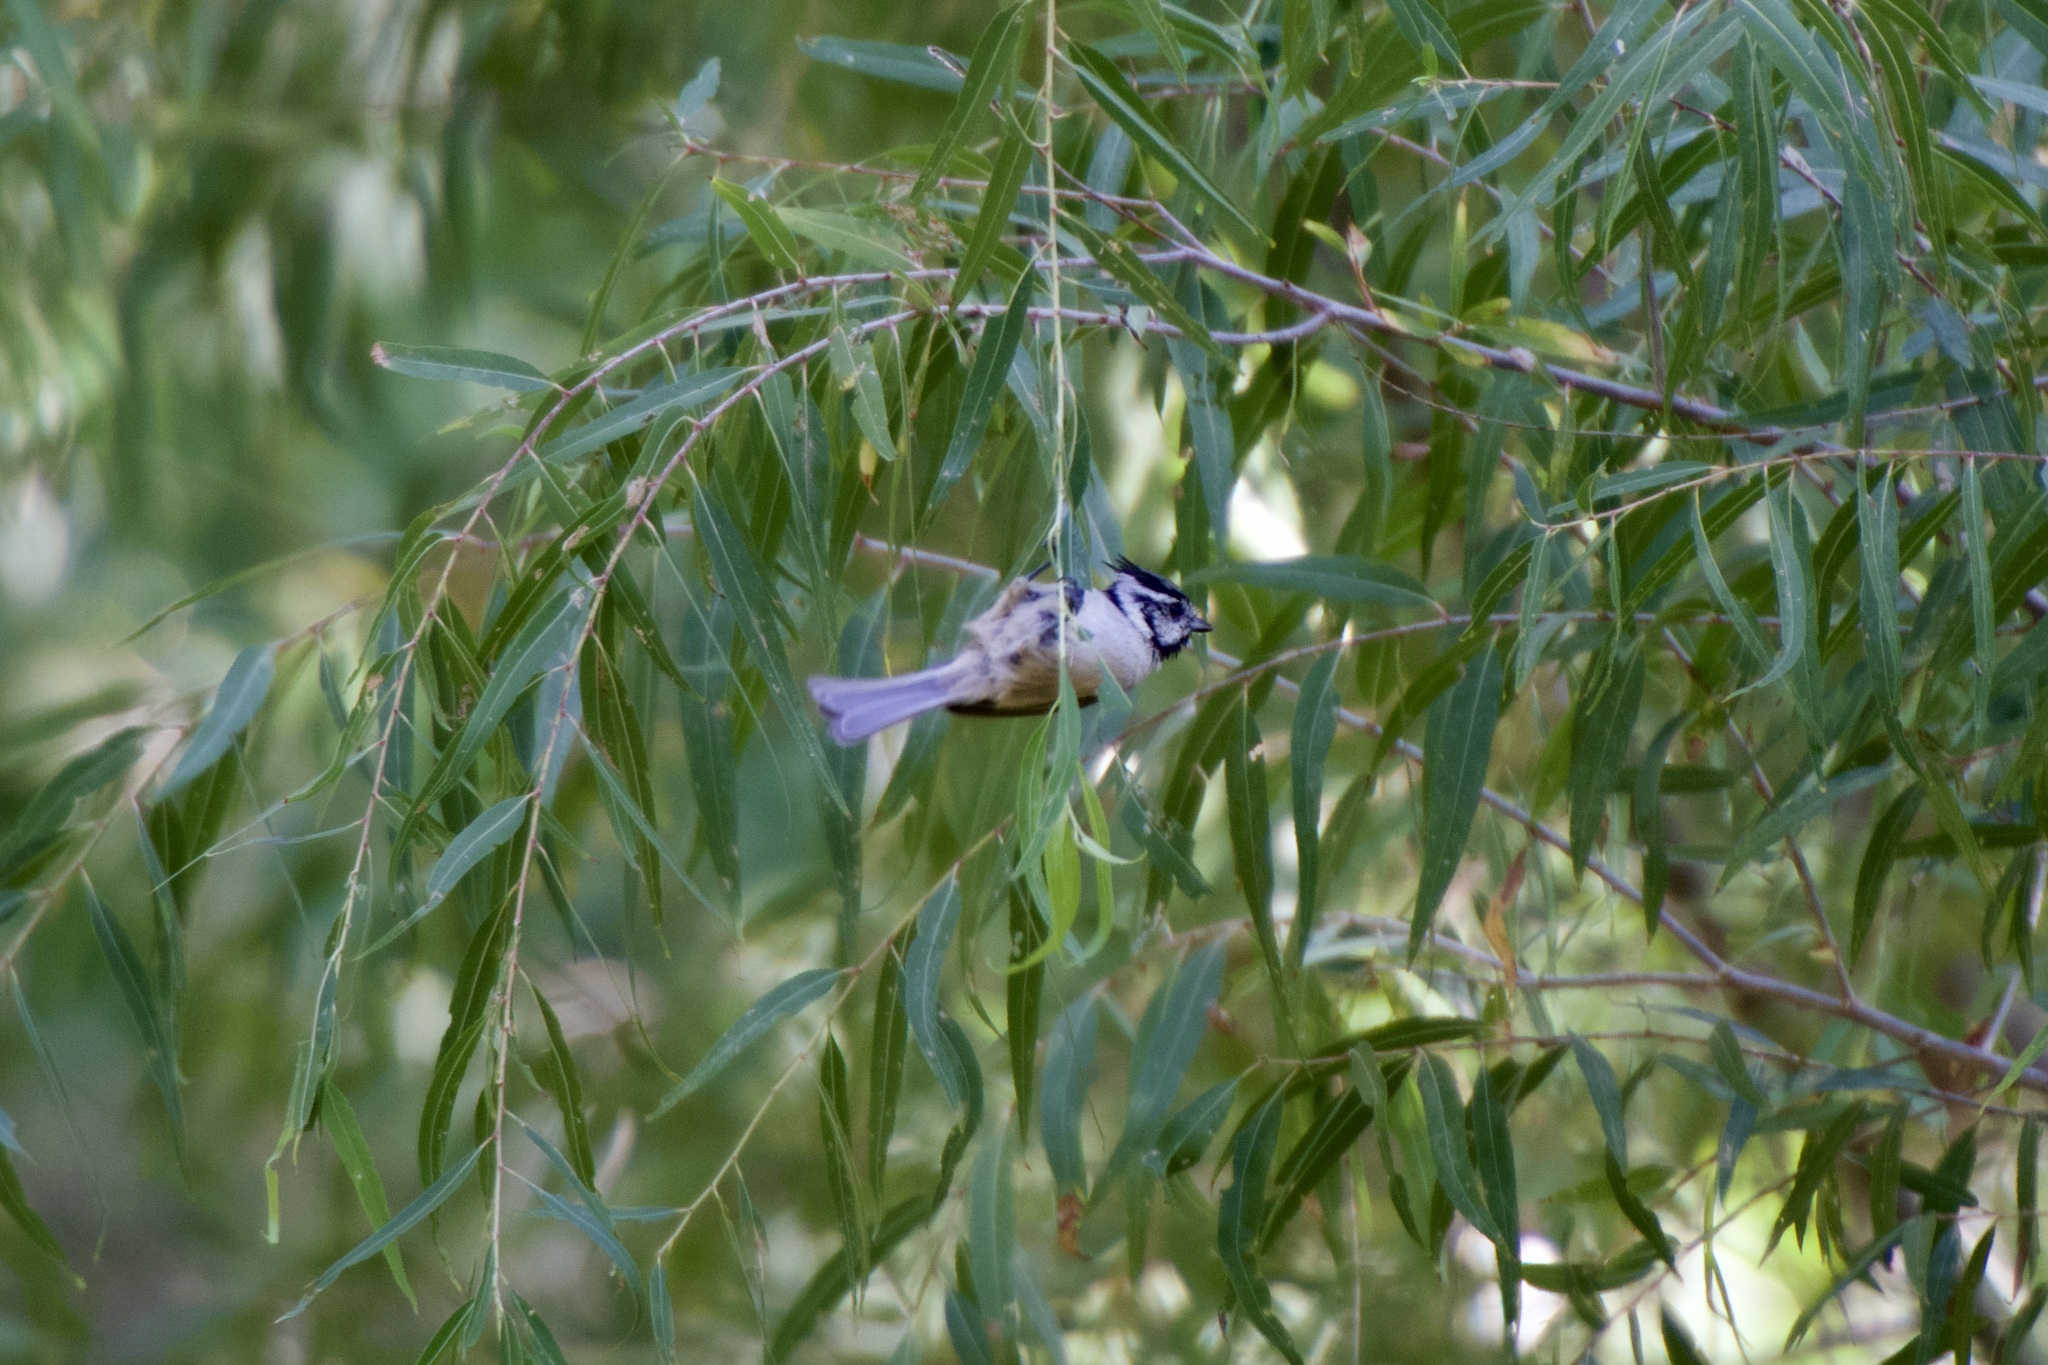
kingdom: Animalia
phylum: Chordata
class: Aves
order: Passeriformes
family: Paridae
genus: Baeolophus
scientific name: Baeolophus wollweberi
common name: Bridled titmouse
